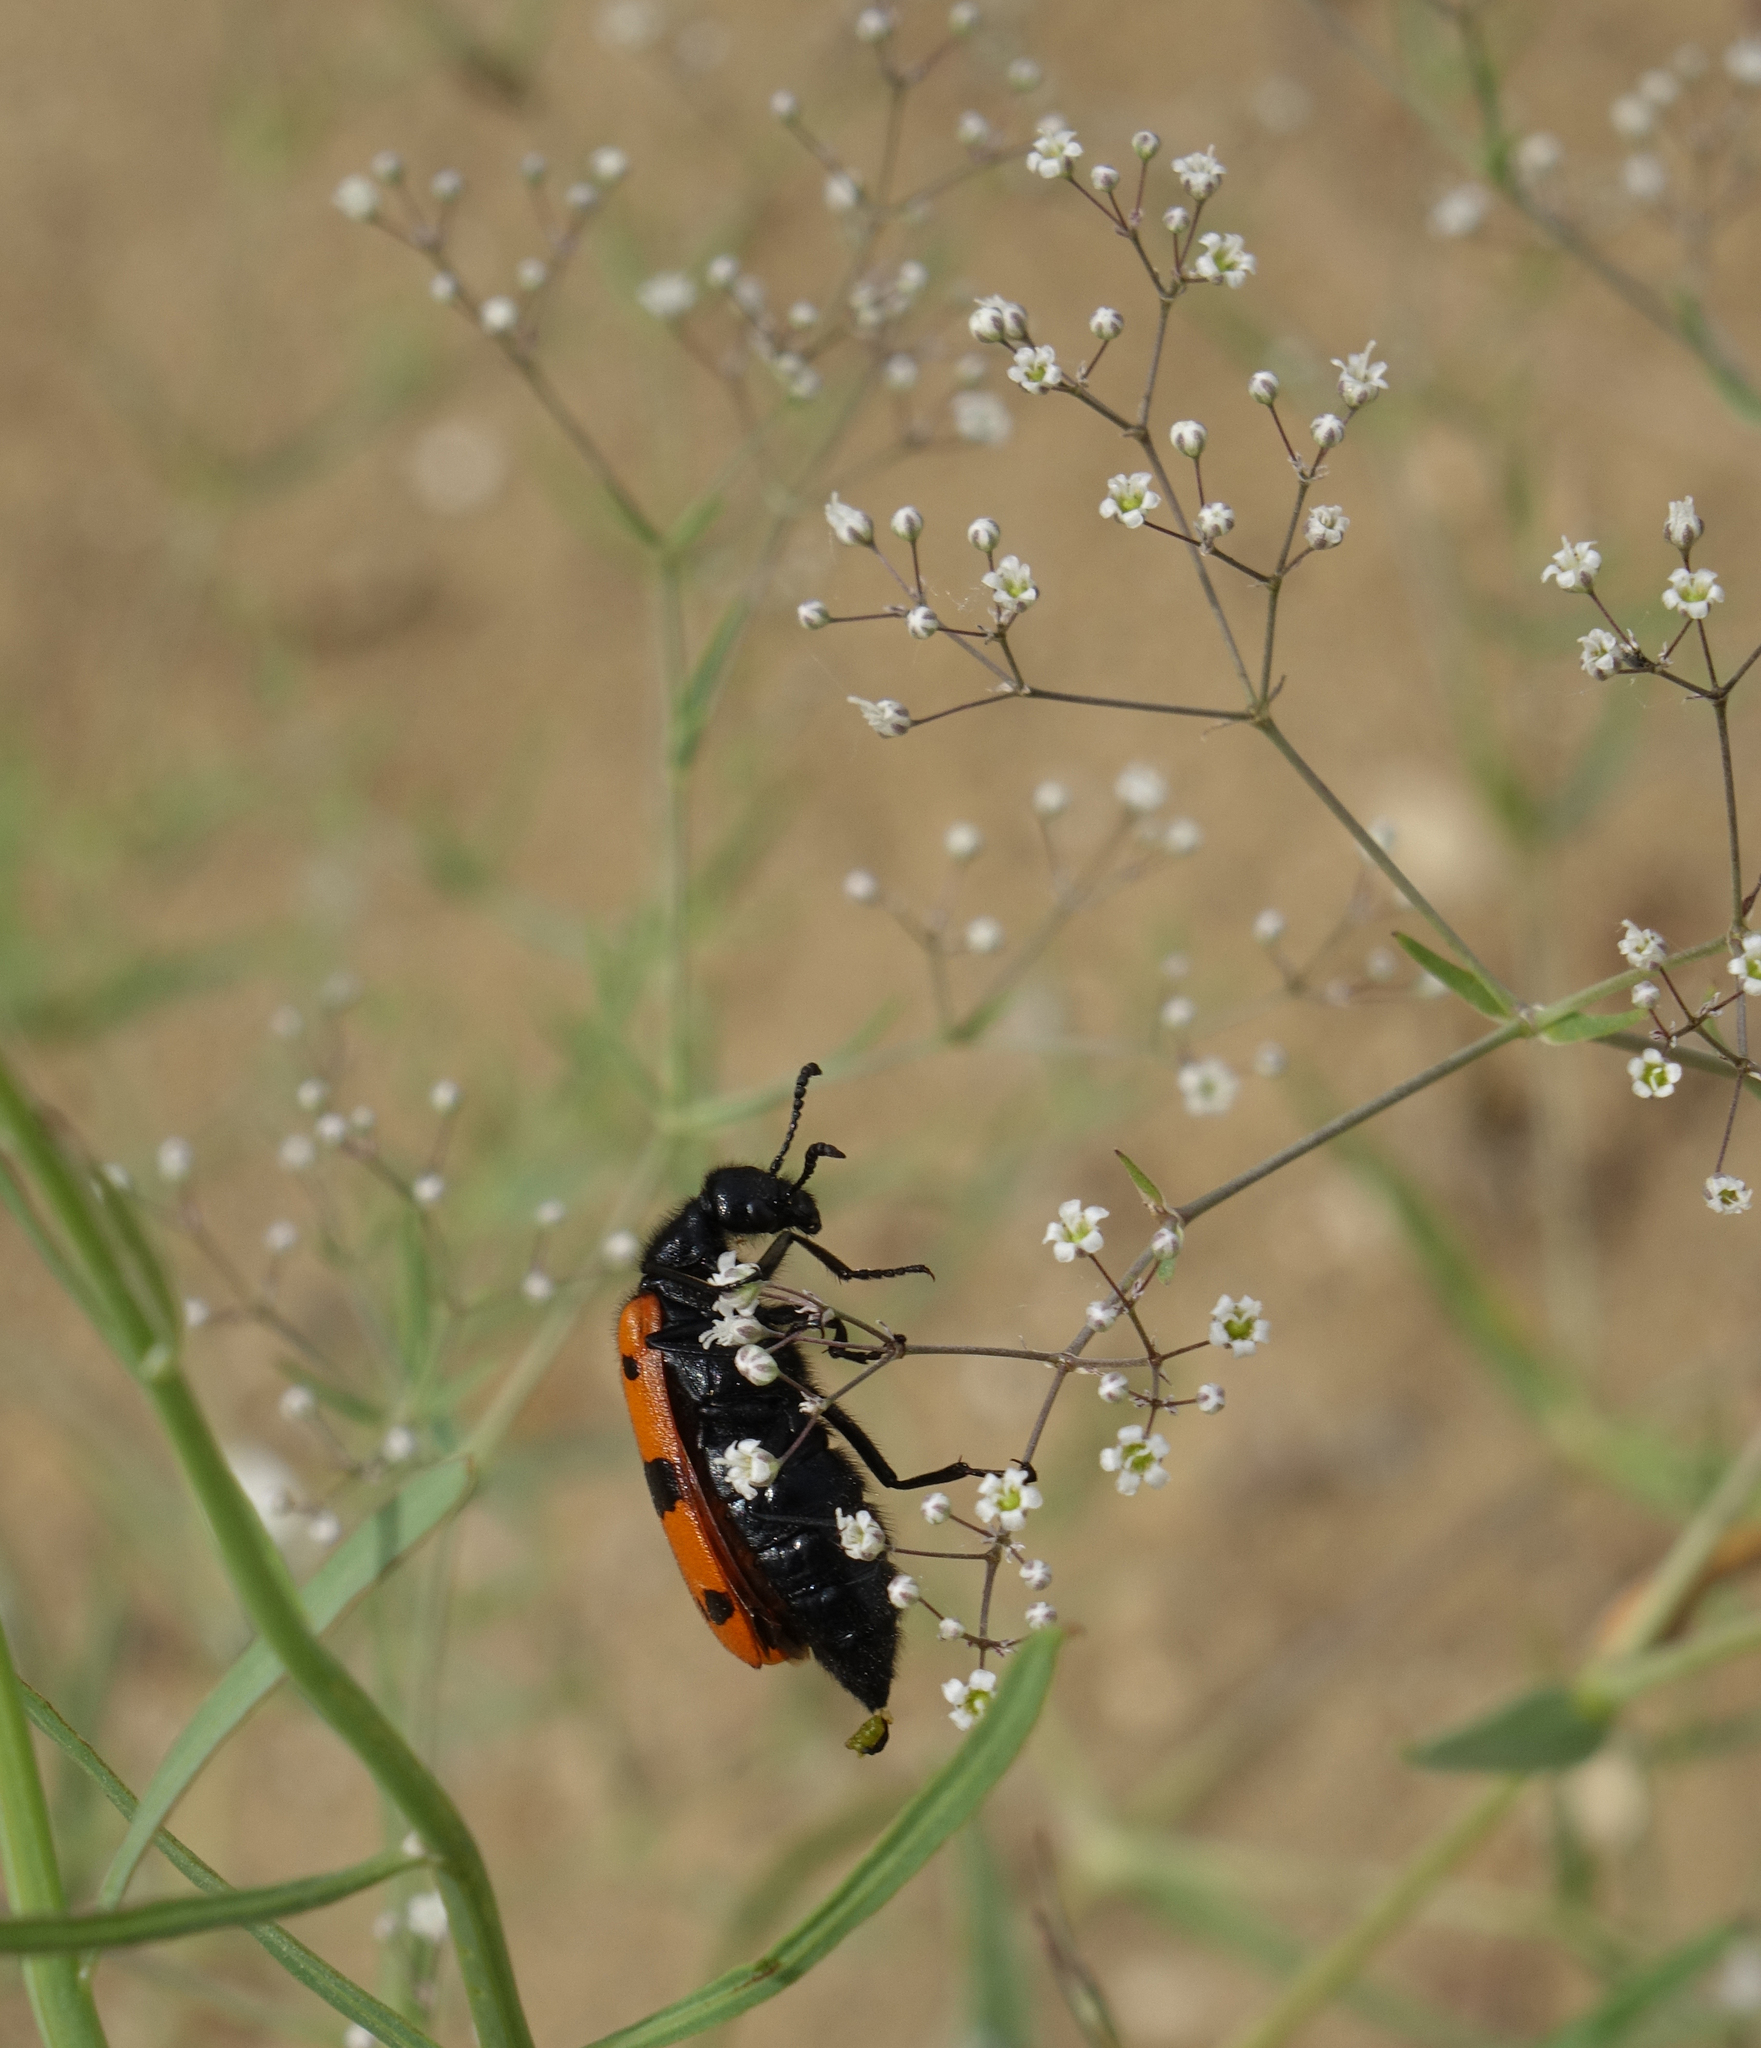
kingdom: Plantae
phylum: Tracheophyta
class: Magnoliopsida
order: Caryophyllales
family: Caryophyllaceae
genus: Gypsophila
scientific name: Gypsophila paniculata
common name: Baby's-breath
